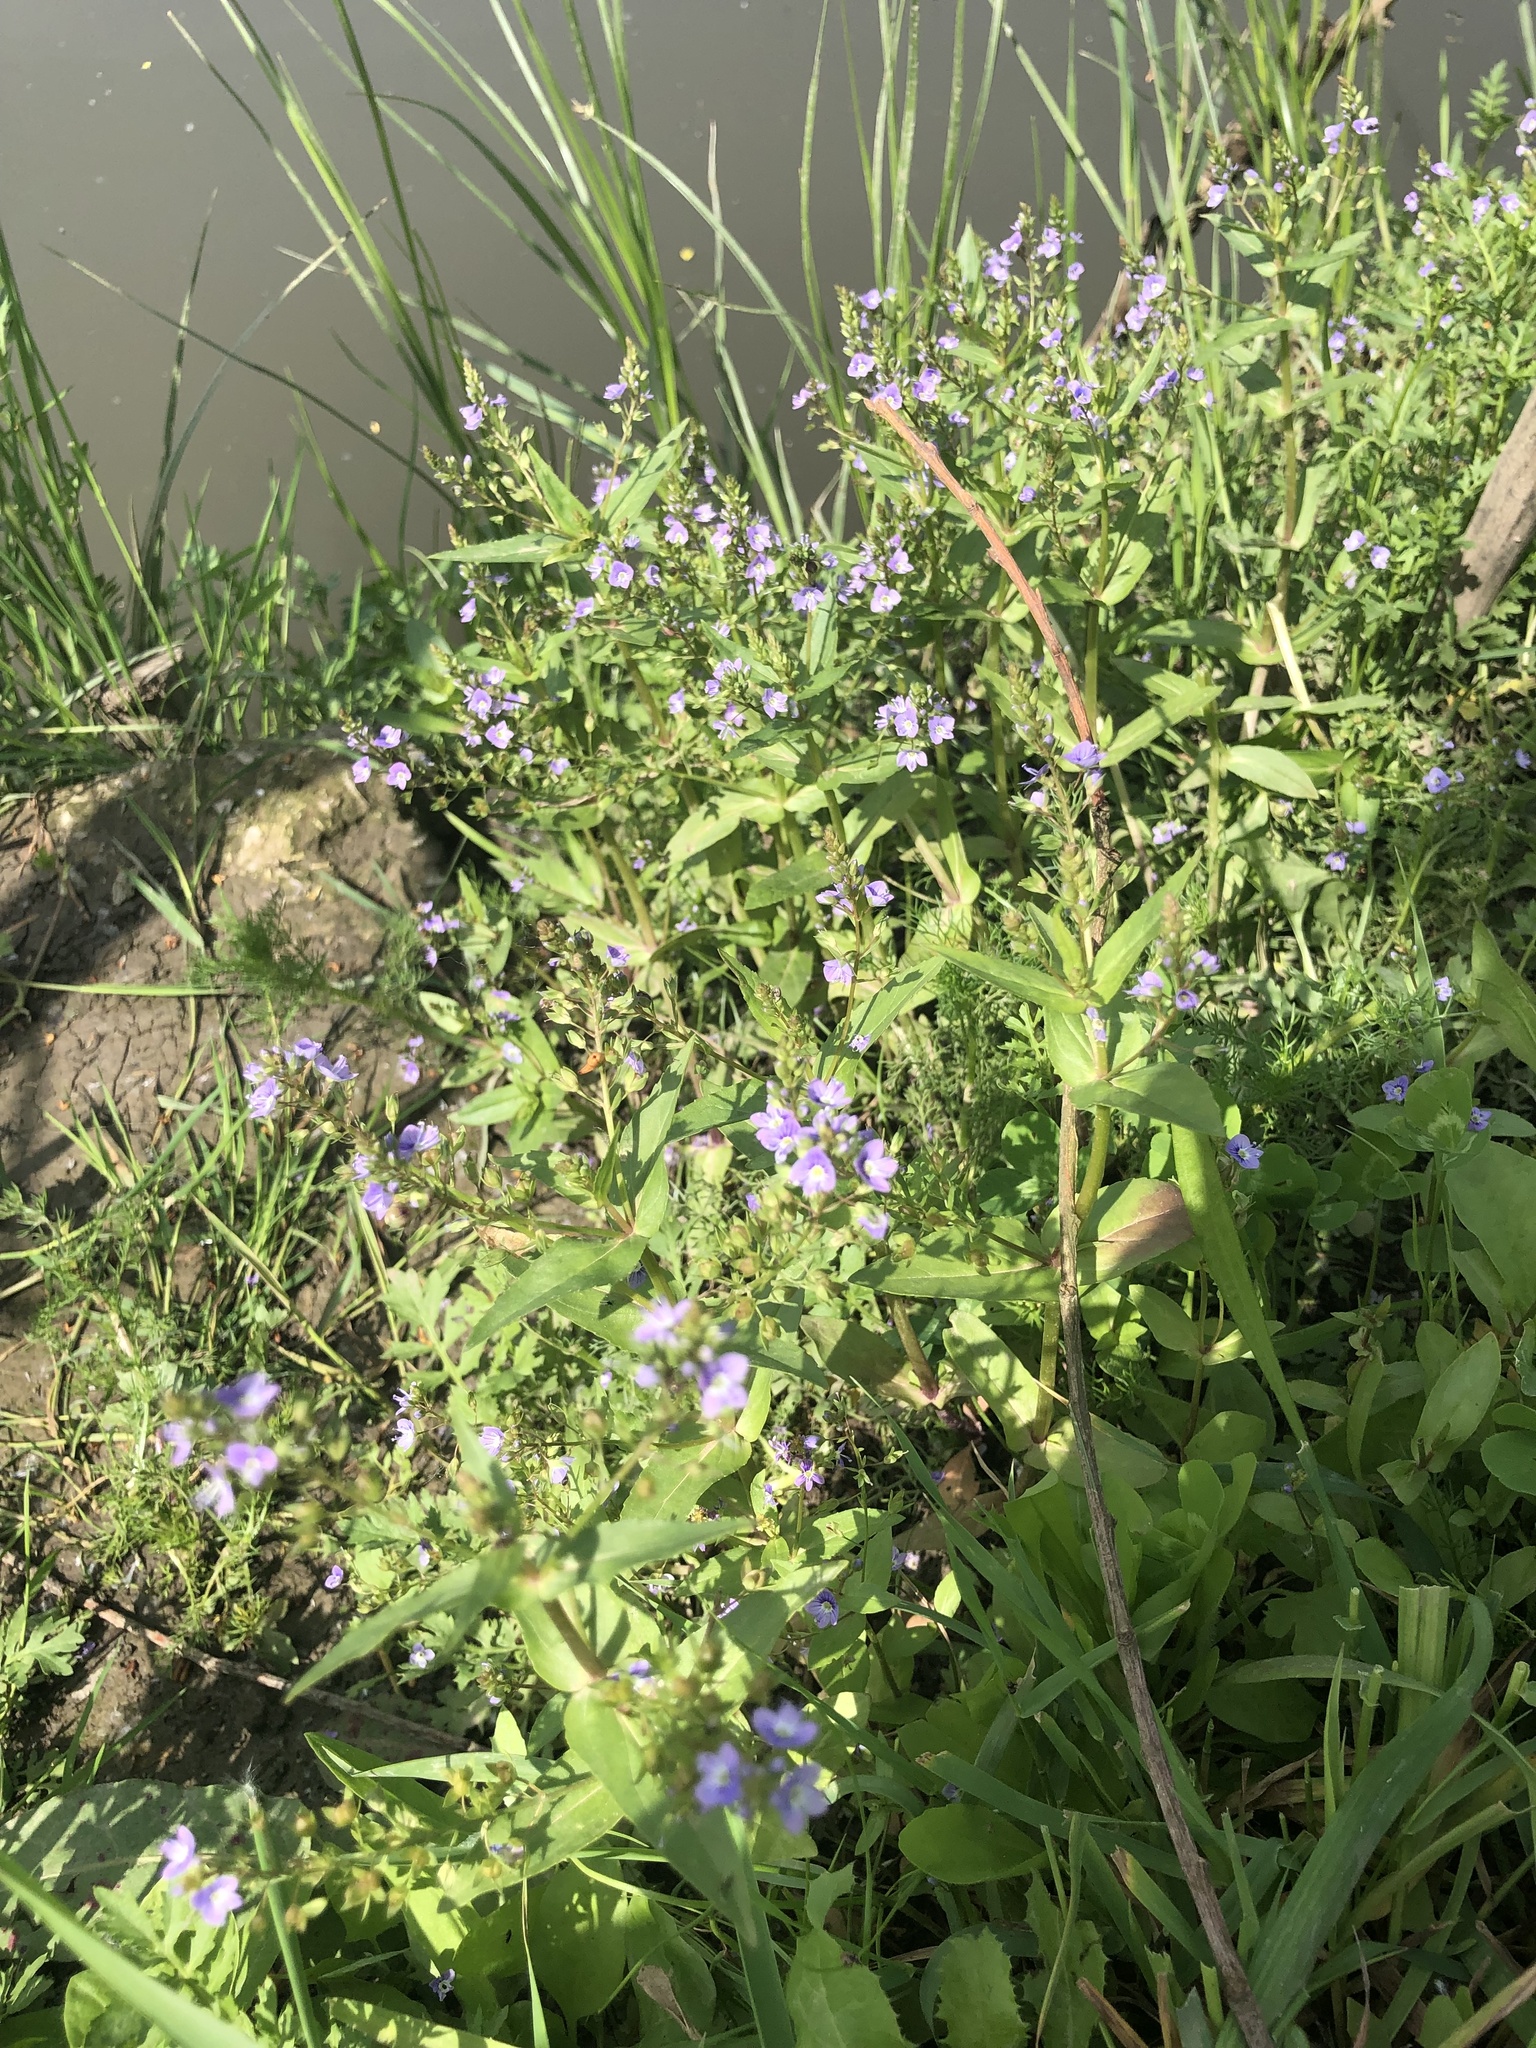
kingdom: Plantae
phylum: Tracheophyta
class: Magnoliopsida
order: Lamiales
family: Plantaginaceae
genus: Veronica
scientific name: Veronica anagallis-aquatica
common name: Water speedwell
